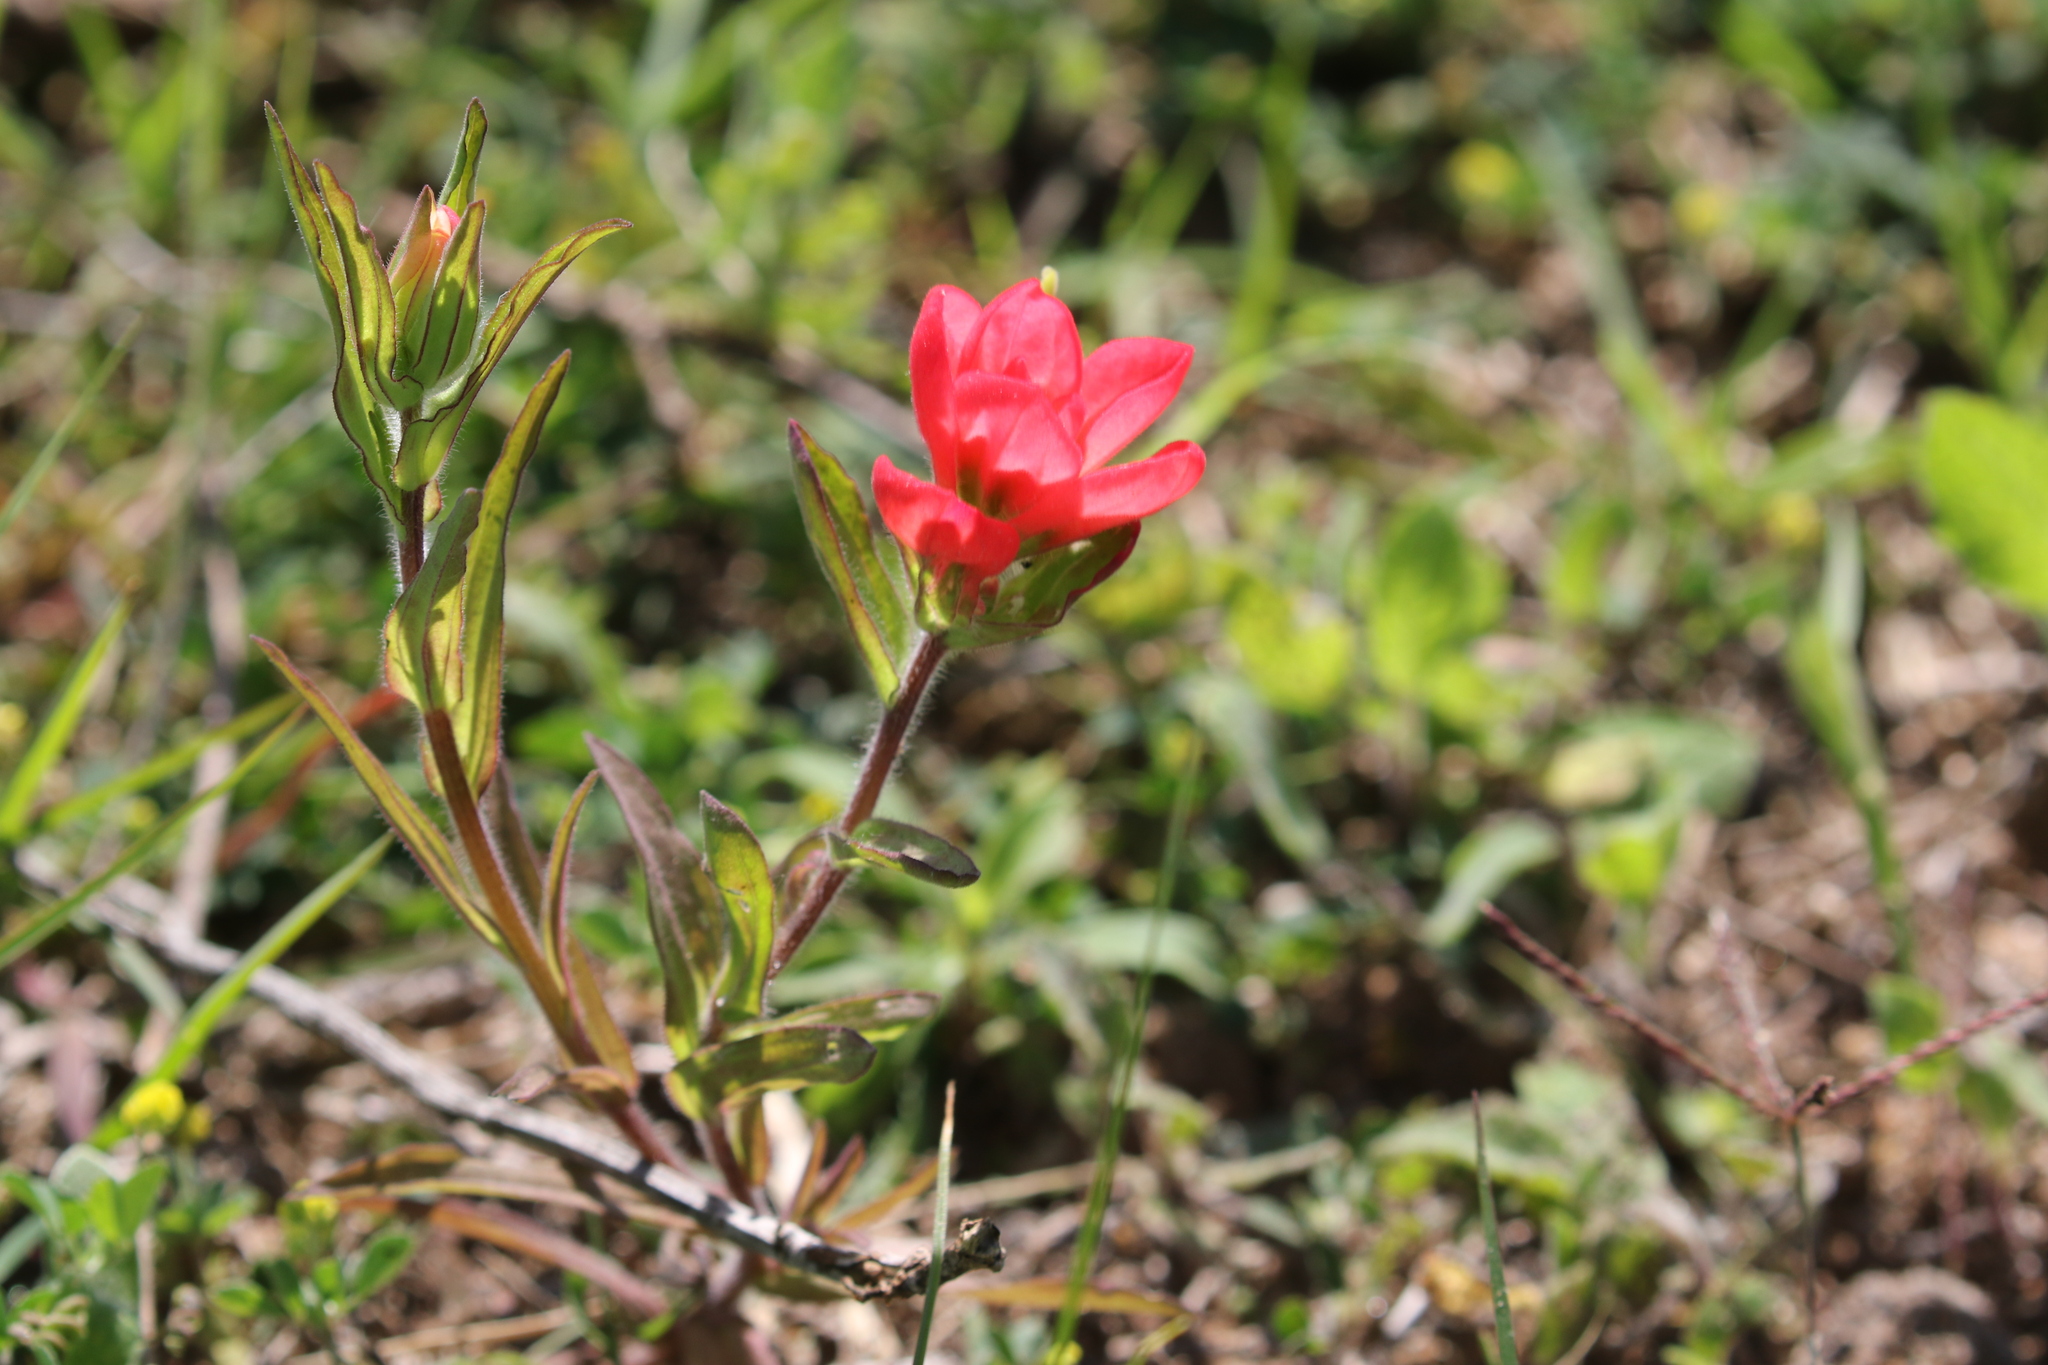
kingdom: Plantae
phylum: Tracheophyta
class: Magnoliopsida
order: Lamiales
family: Orobanchaceae
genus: Castilleja
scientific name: Castilleja indivisa
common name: Texas paintbrush
